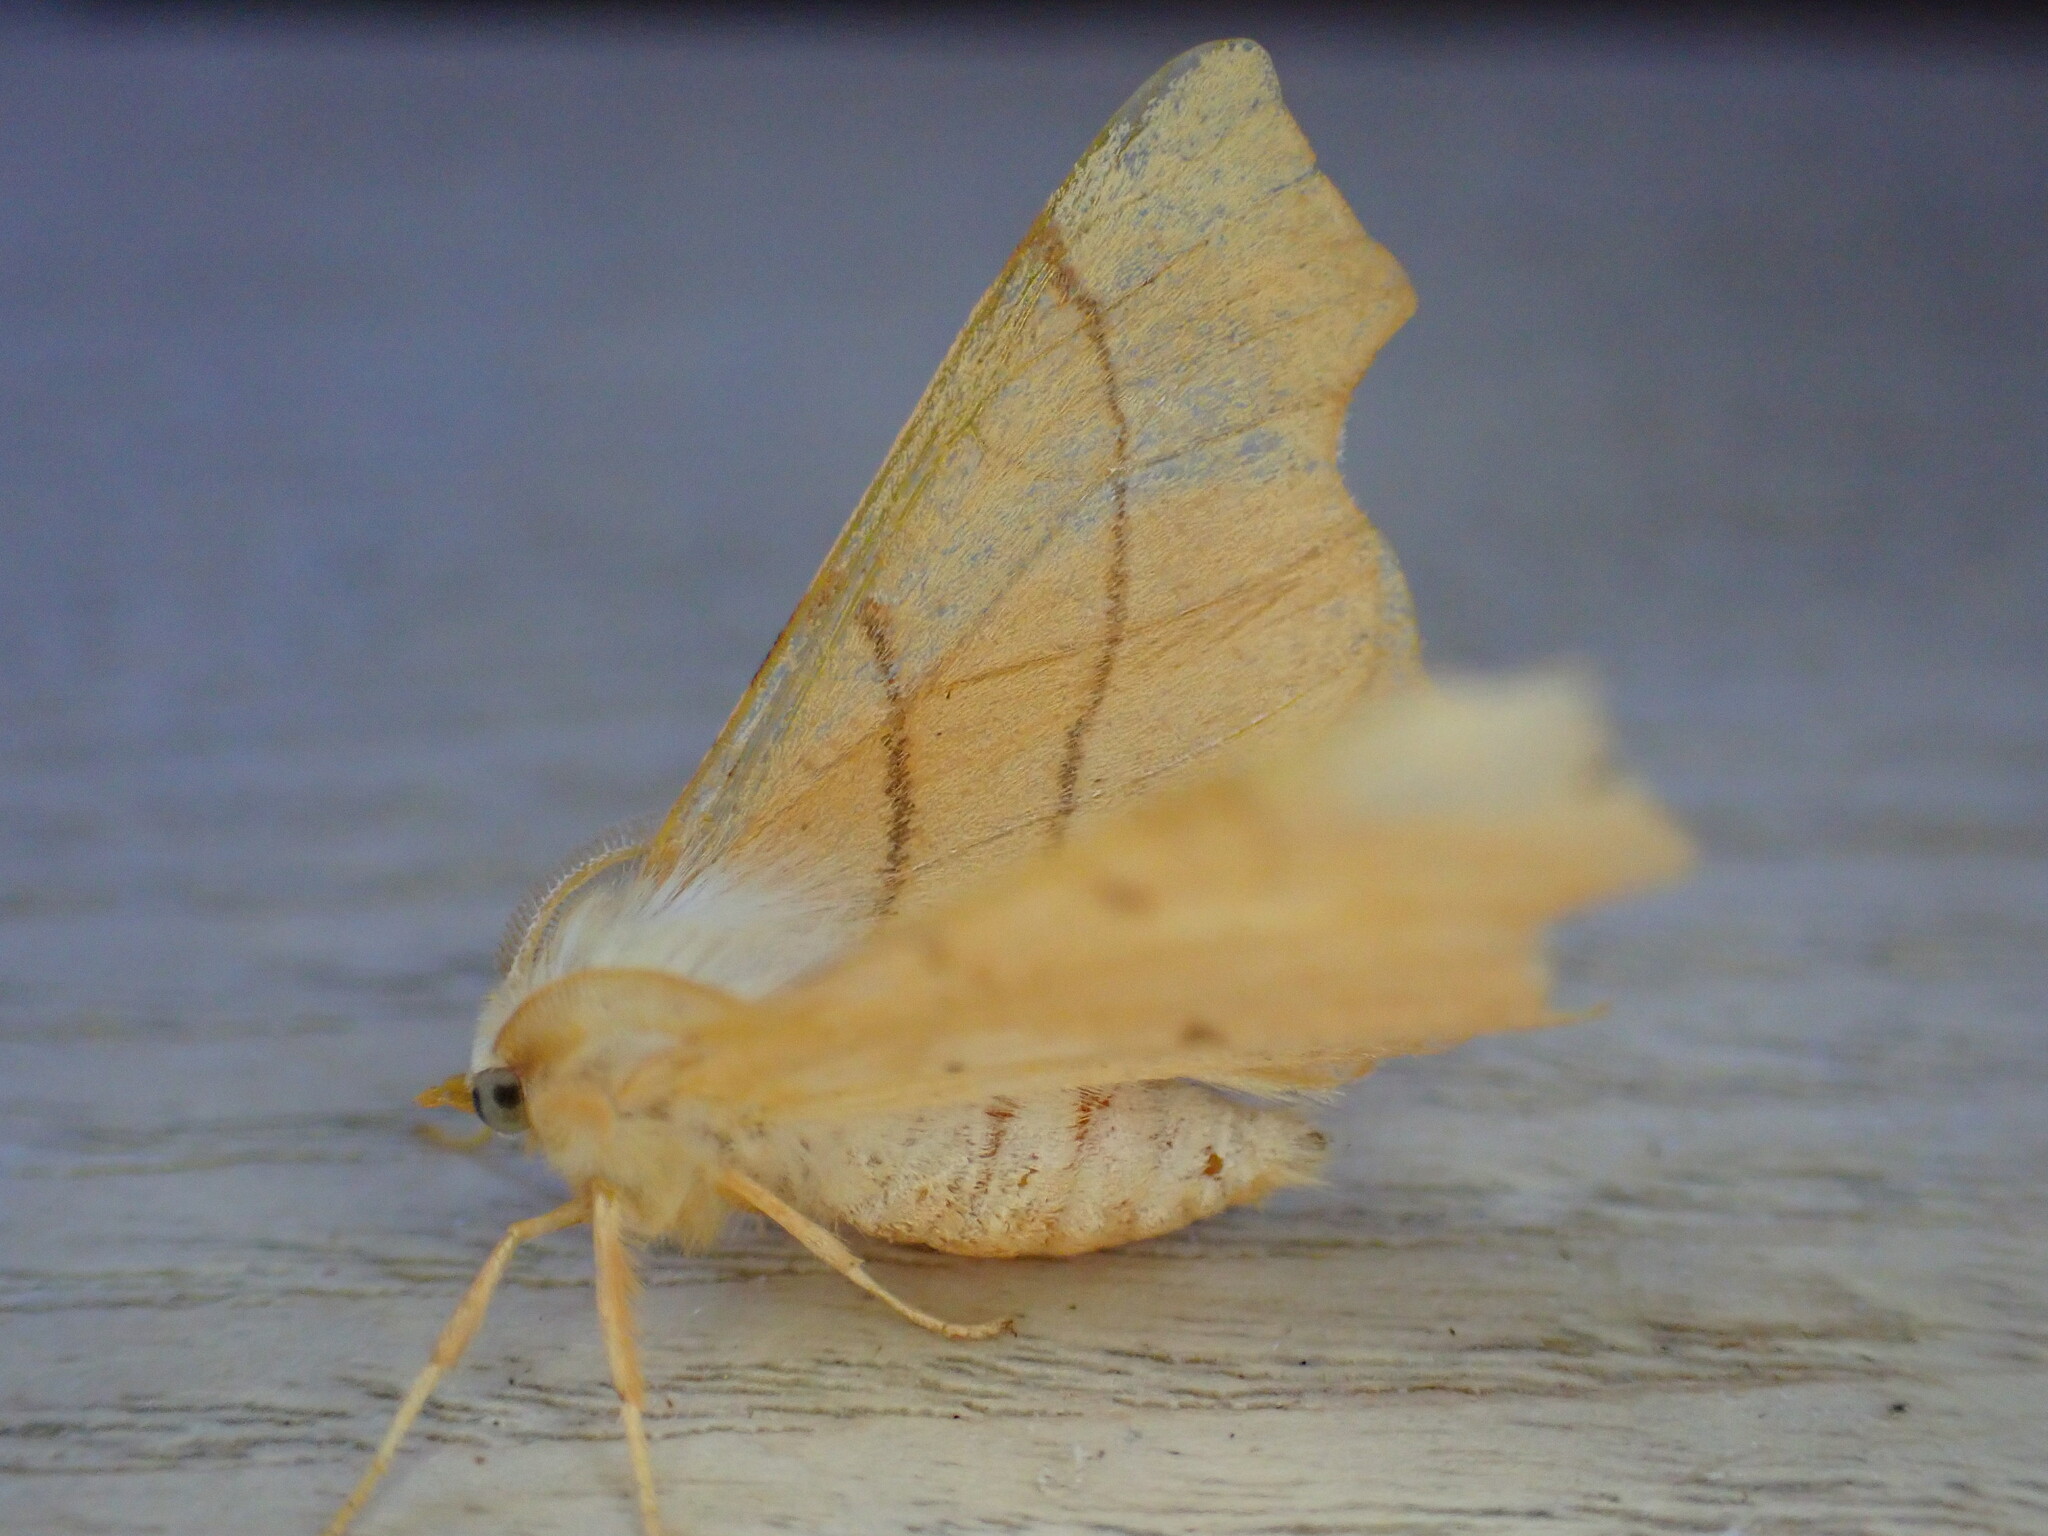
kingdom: Animalia
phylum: Arthropoda
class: Insecta
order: Lepidoptera
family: Geometridae
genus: Ennomos
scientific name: Ennomos erosaria
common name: September thorn
